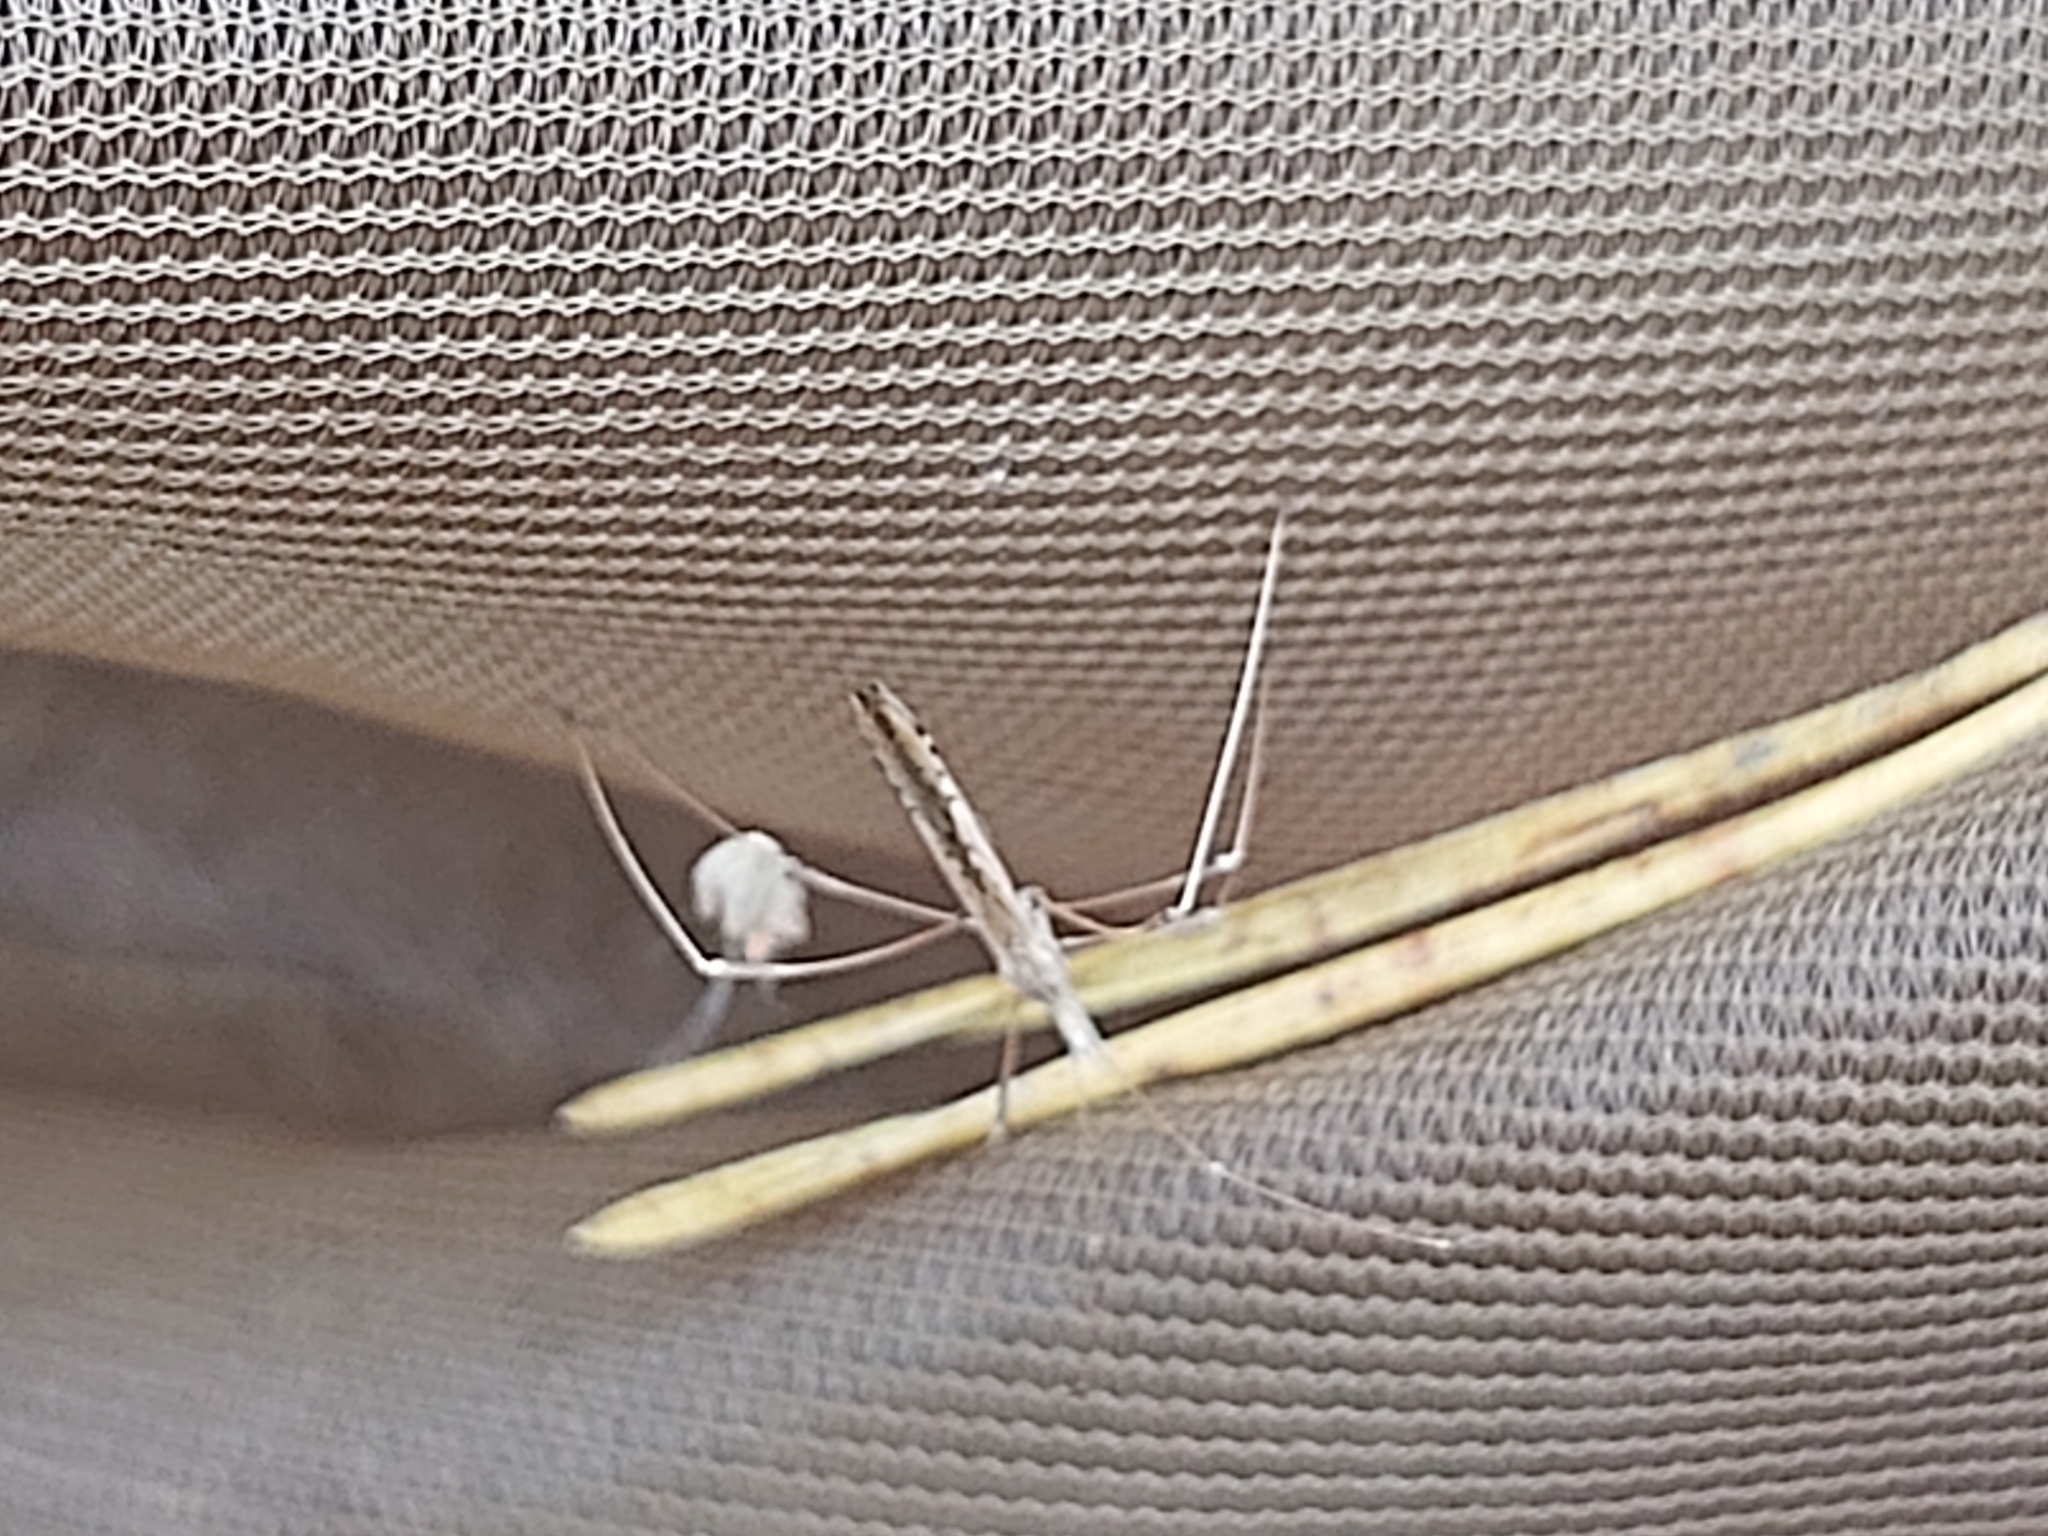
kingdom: Animalia
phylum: Arthropoda
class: Insecta
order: Hemiptera
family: Berytidae
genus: Neides
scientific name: Neides tipularius
